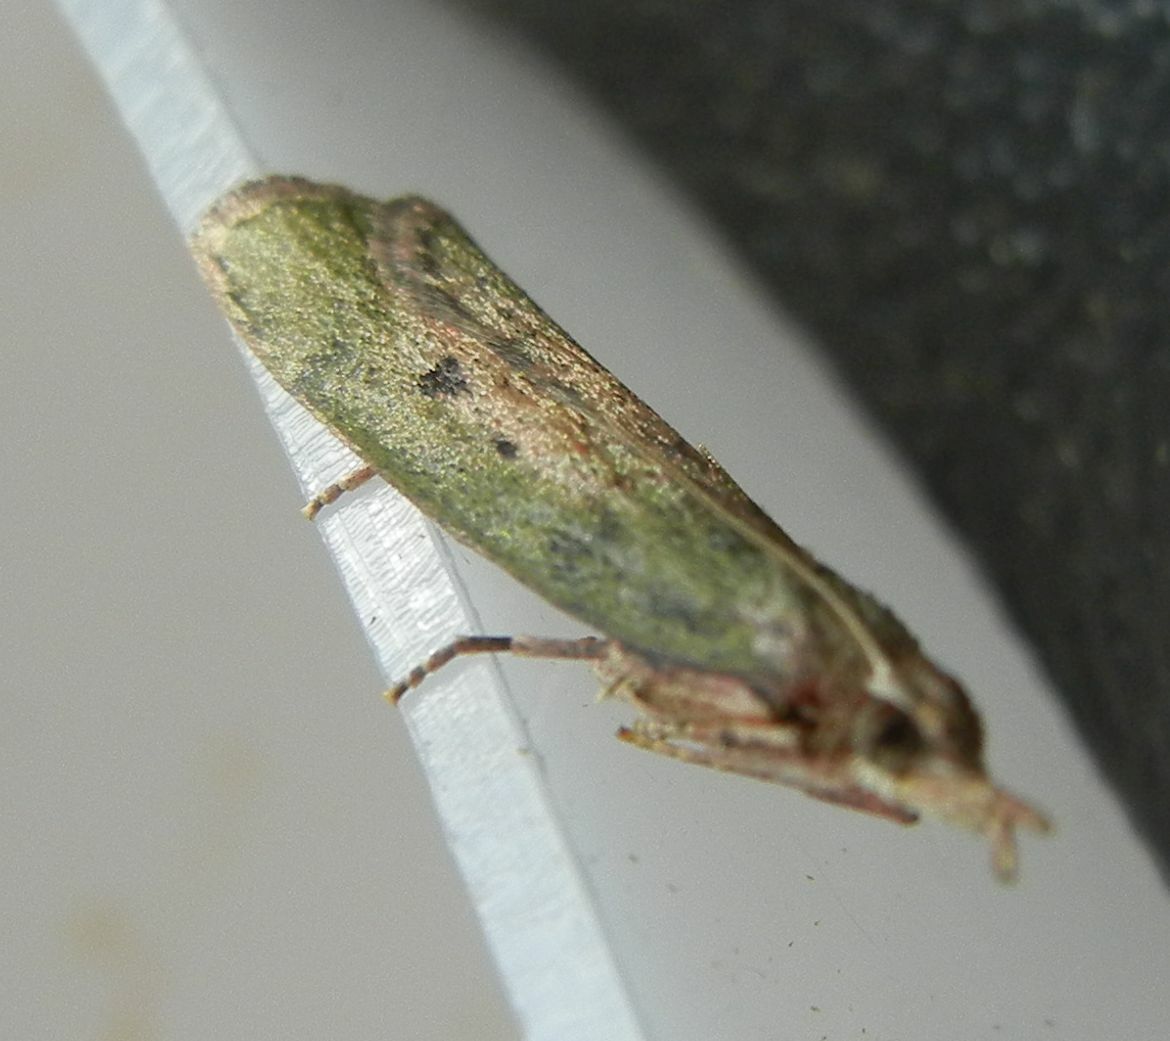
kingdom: Animalia
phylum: Arthropoda
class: Insecta
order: Lepidoptera
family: Pyralidae
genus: Aphomia
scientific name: Aphomia sociella
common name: Bee moth
